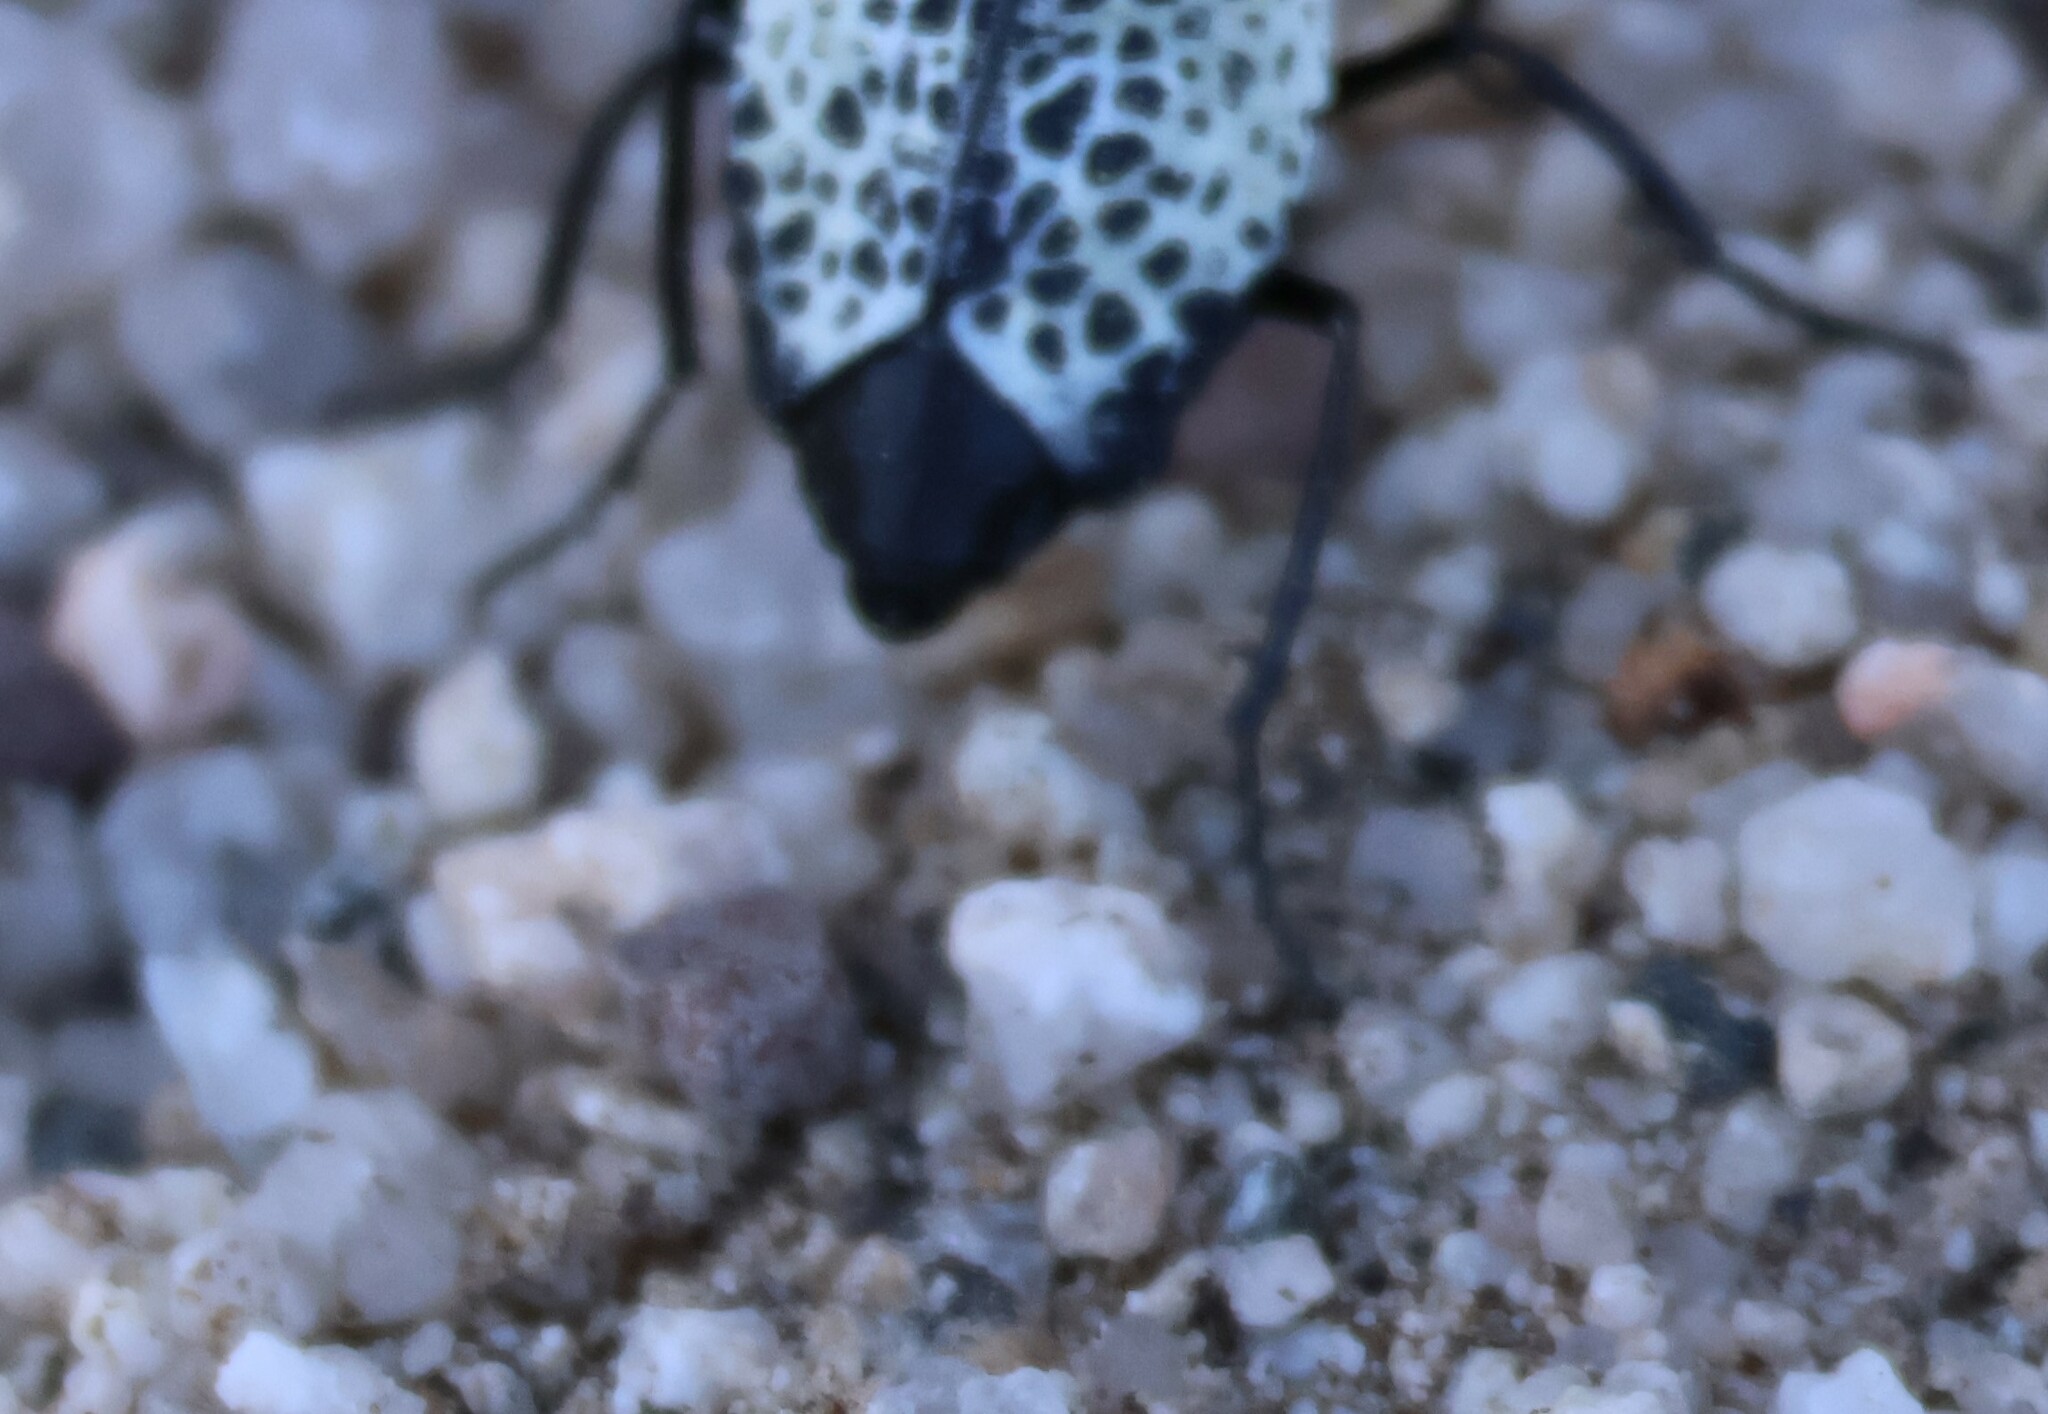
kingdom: Animalia
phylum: Arthropoda
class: Insecta
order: Coleoptera
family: Meloidae
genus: Cysteodemus
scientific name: Cysteodemus armatus
